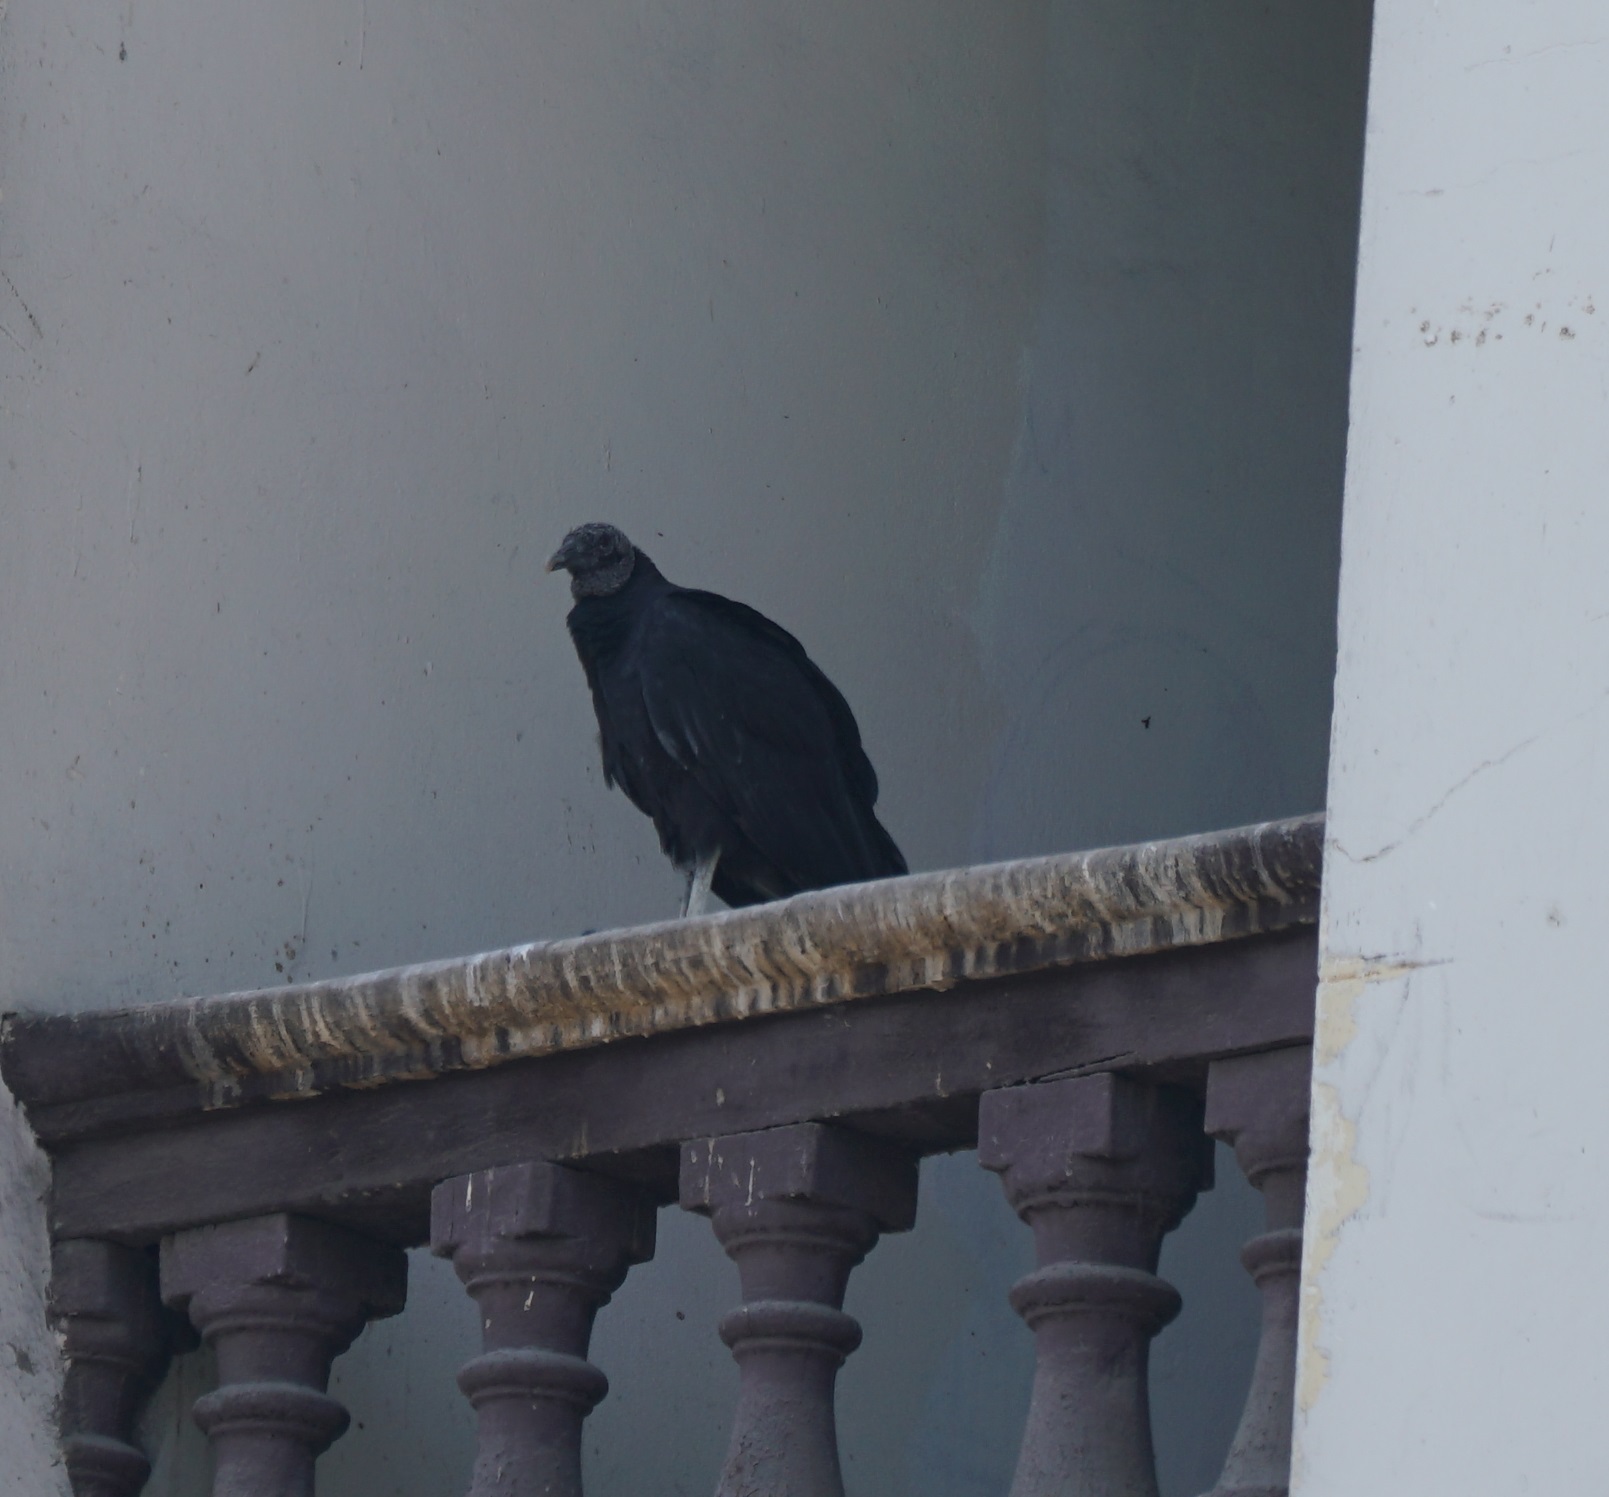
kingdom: Animalia
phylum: Chordata
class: Aves
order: Accipitriformes
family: Cathartidae
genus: Coragyps
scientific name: Coragyps atratus
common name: Black vulture
